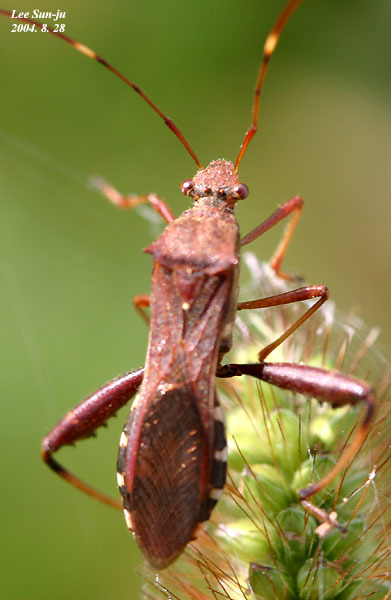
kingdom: Animalia
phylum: Arthropoda
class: Insecta
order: Hemiptera
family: Alydidae
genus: Riptortus
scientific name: Riptortus pedestris
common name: Bean bug
